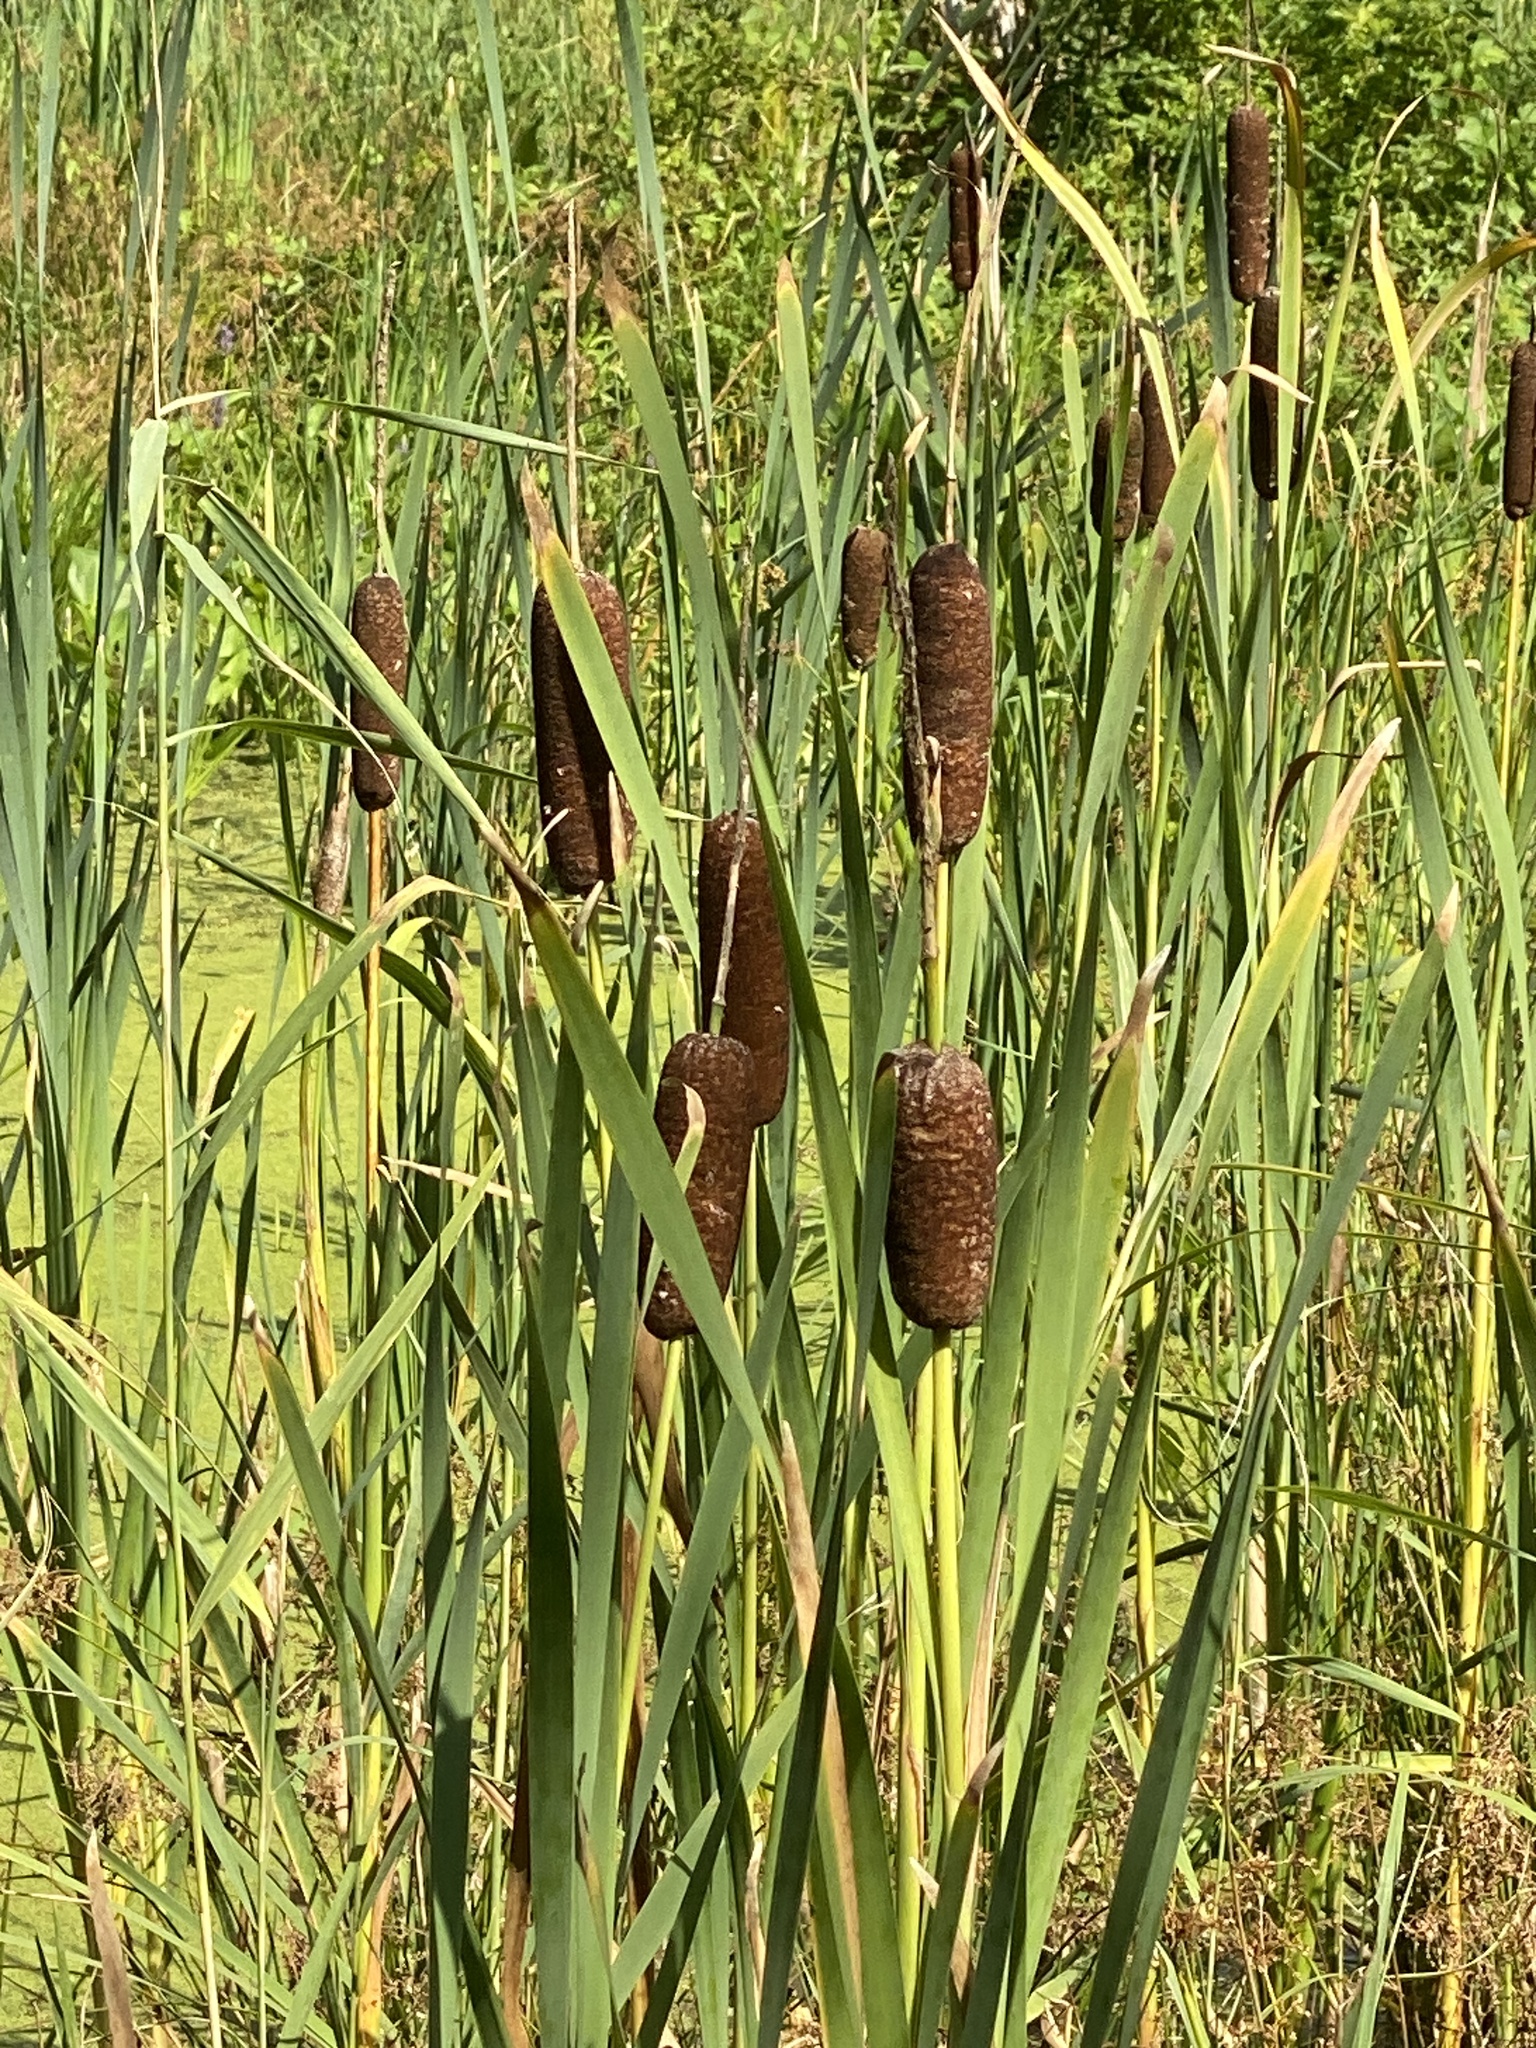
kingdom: Plantae
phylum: Tracheophyta
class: Liliopsida
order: Poales
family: Typhaceae
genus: Typha
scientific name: Typha latifolia
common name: Broadleaf cattail
